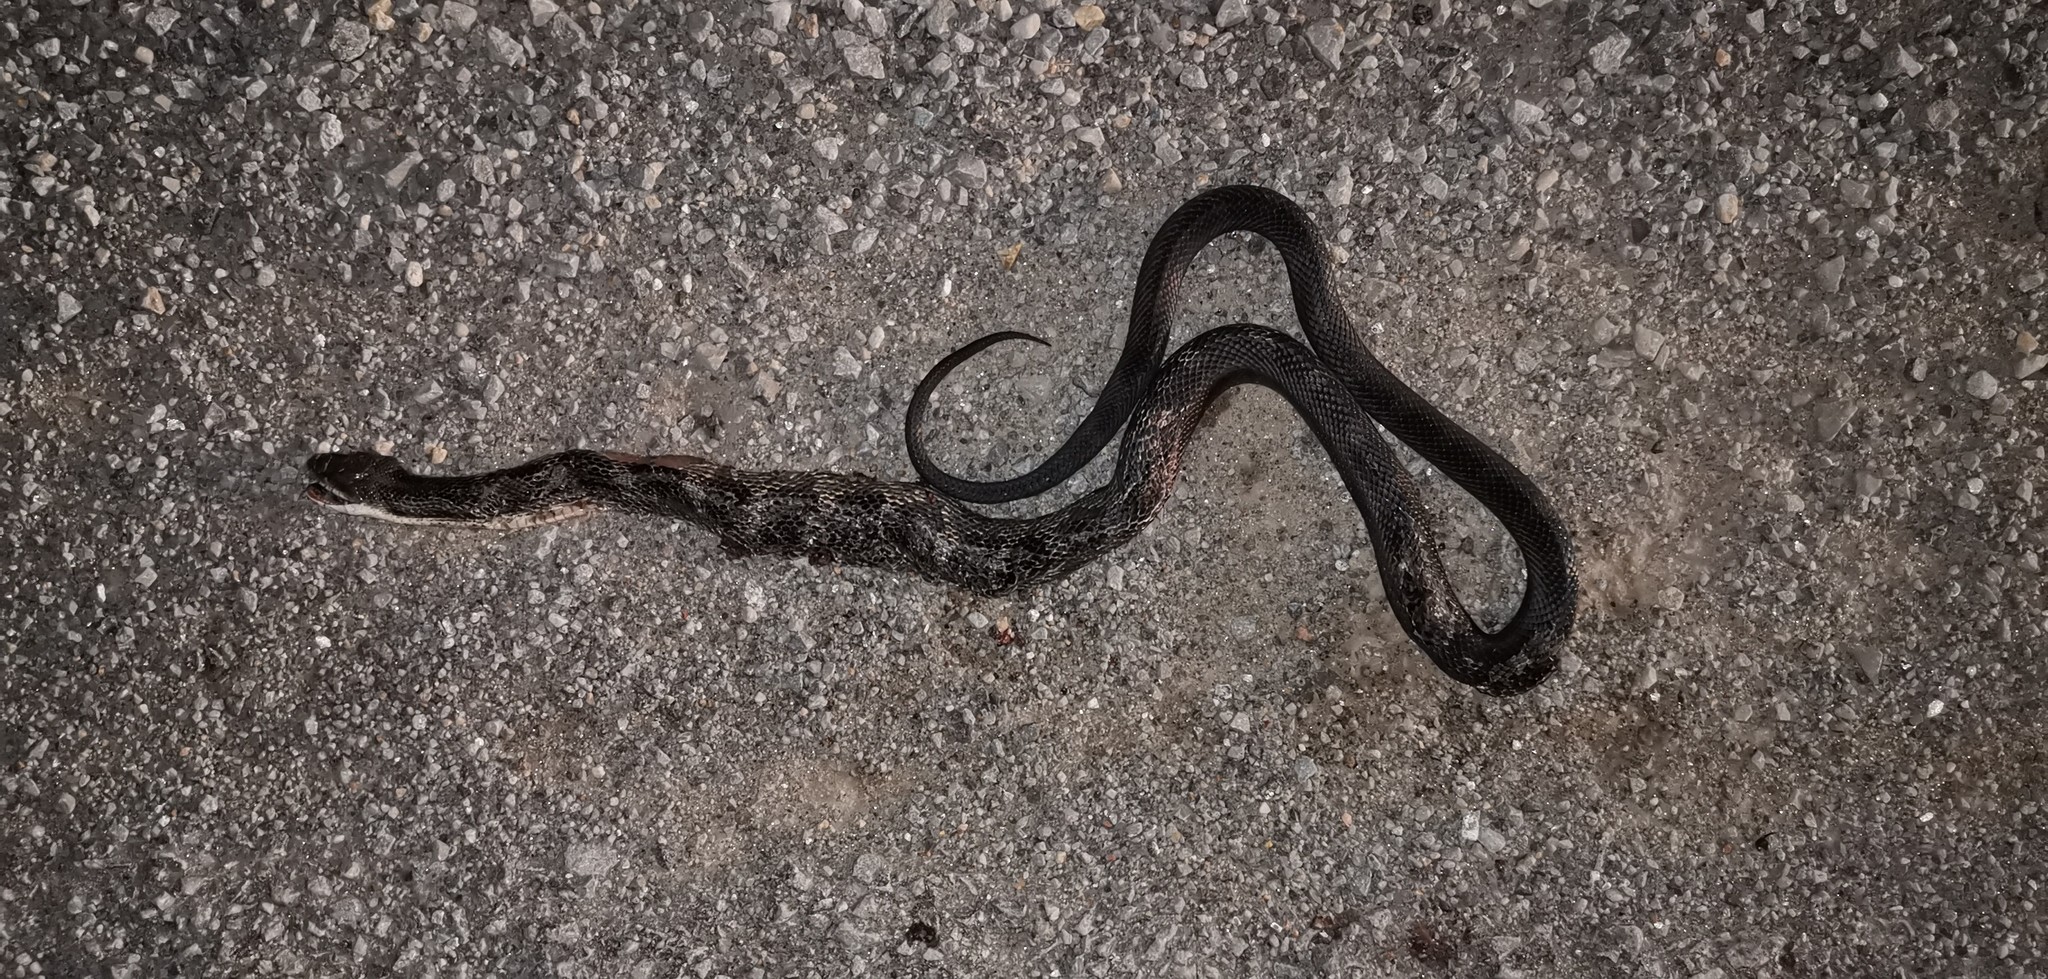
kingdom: Animalia
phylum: Chordata
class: Squamata
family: Colubridae
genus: Pantherophis
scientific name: Pantherophis spiloides
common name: Gray rat snake
